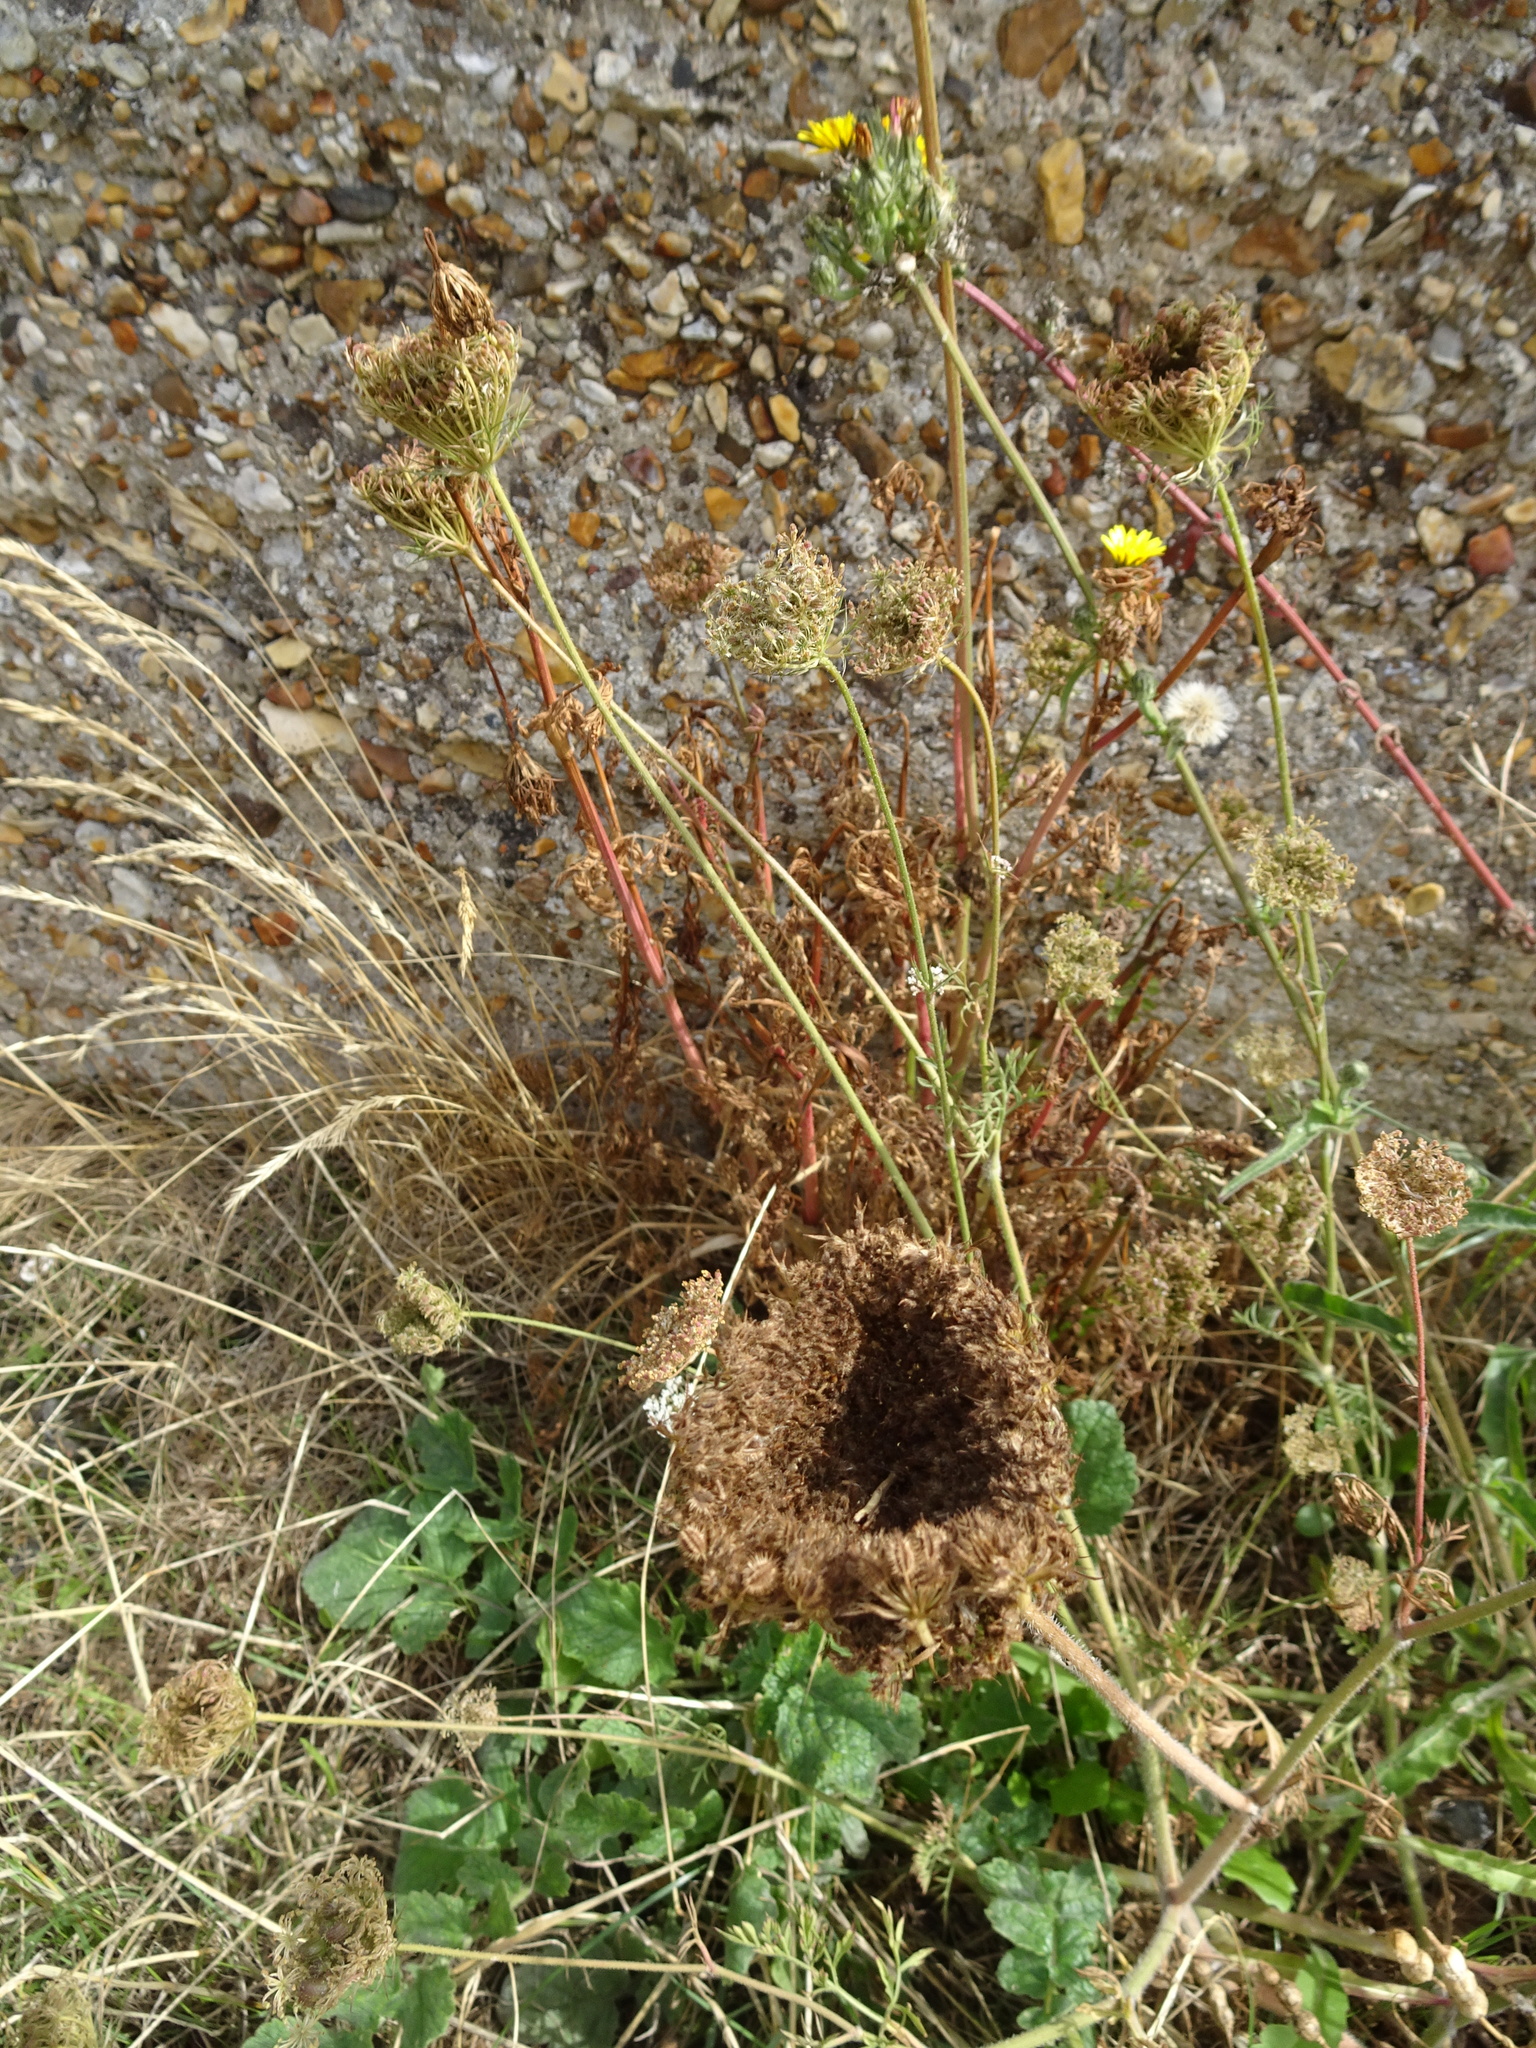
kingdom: Plantae
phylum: Tracheophyta
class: Magnoliopsida
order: Apiales
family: Apiaceae
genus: Daucus
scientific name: Daucus carota
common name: Wild carrot
